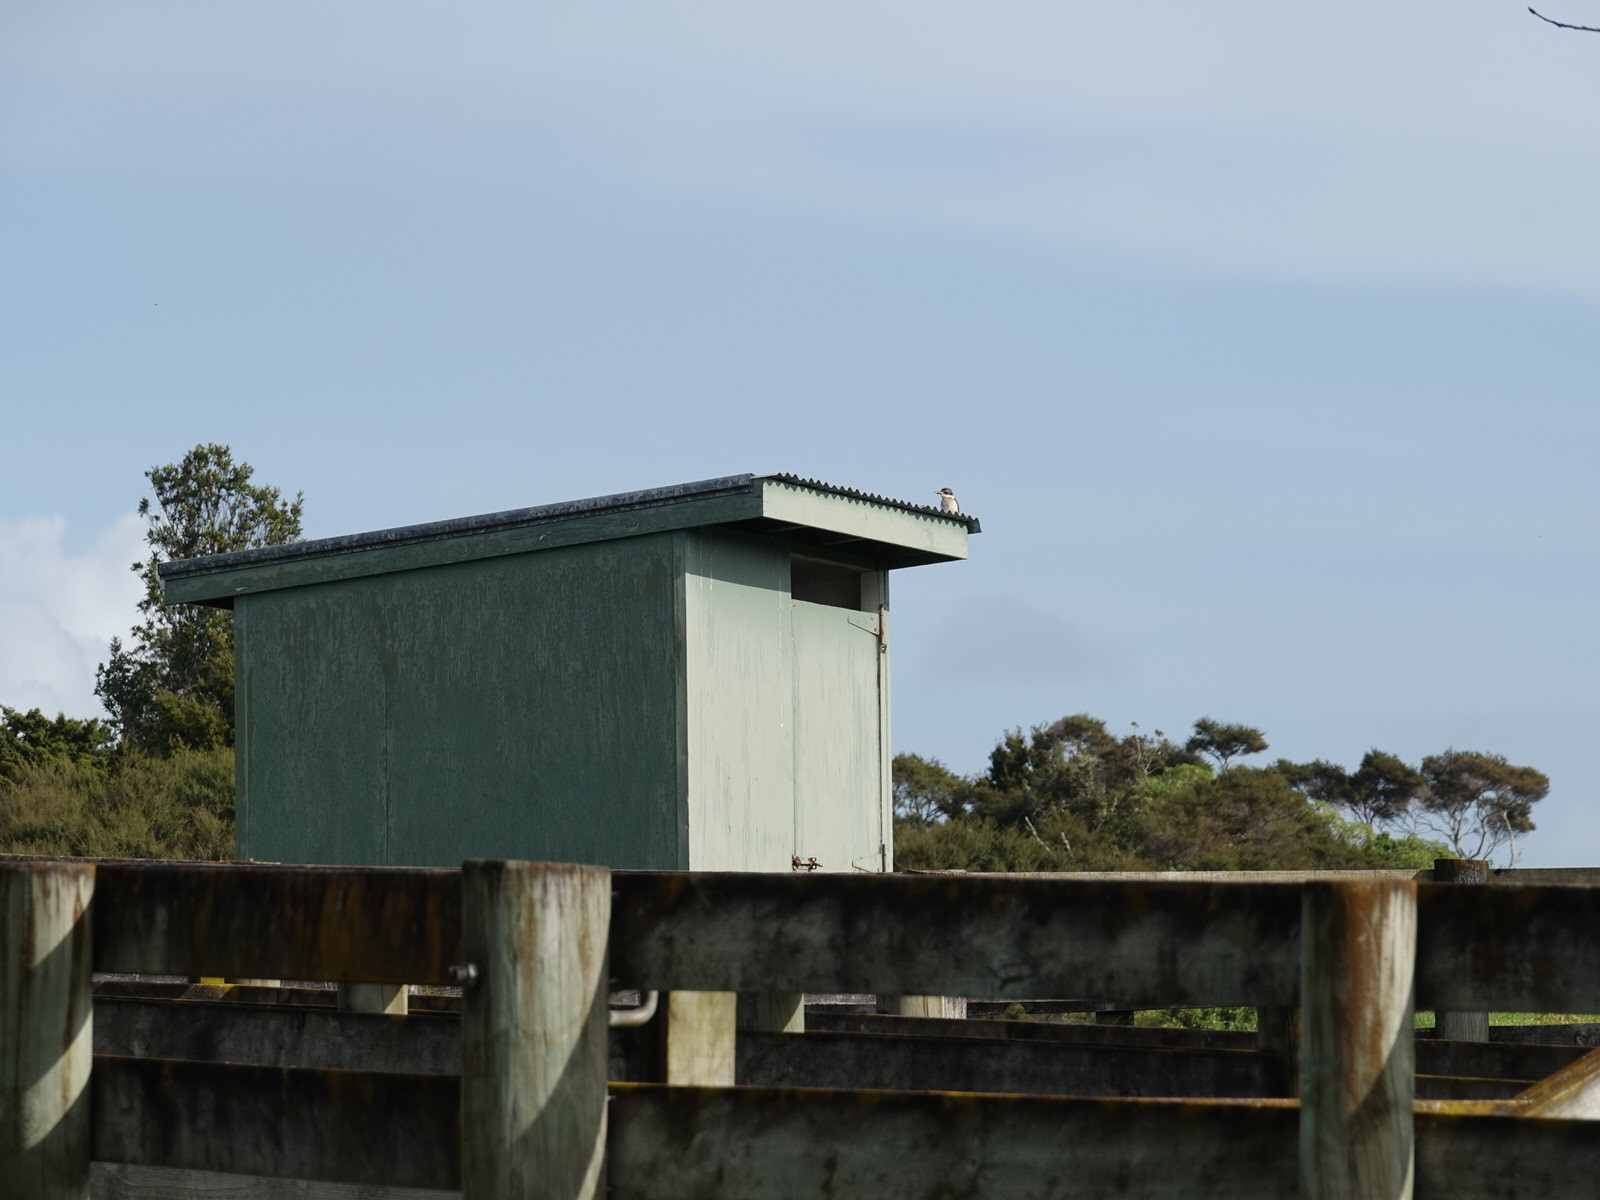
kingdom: Animalia
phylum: Chordata
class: Aves
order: Coraciiformes
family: Alcedinidae
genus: Todiramphus
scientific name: Todiramphus sanctus
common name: Sacred kingfisher
